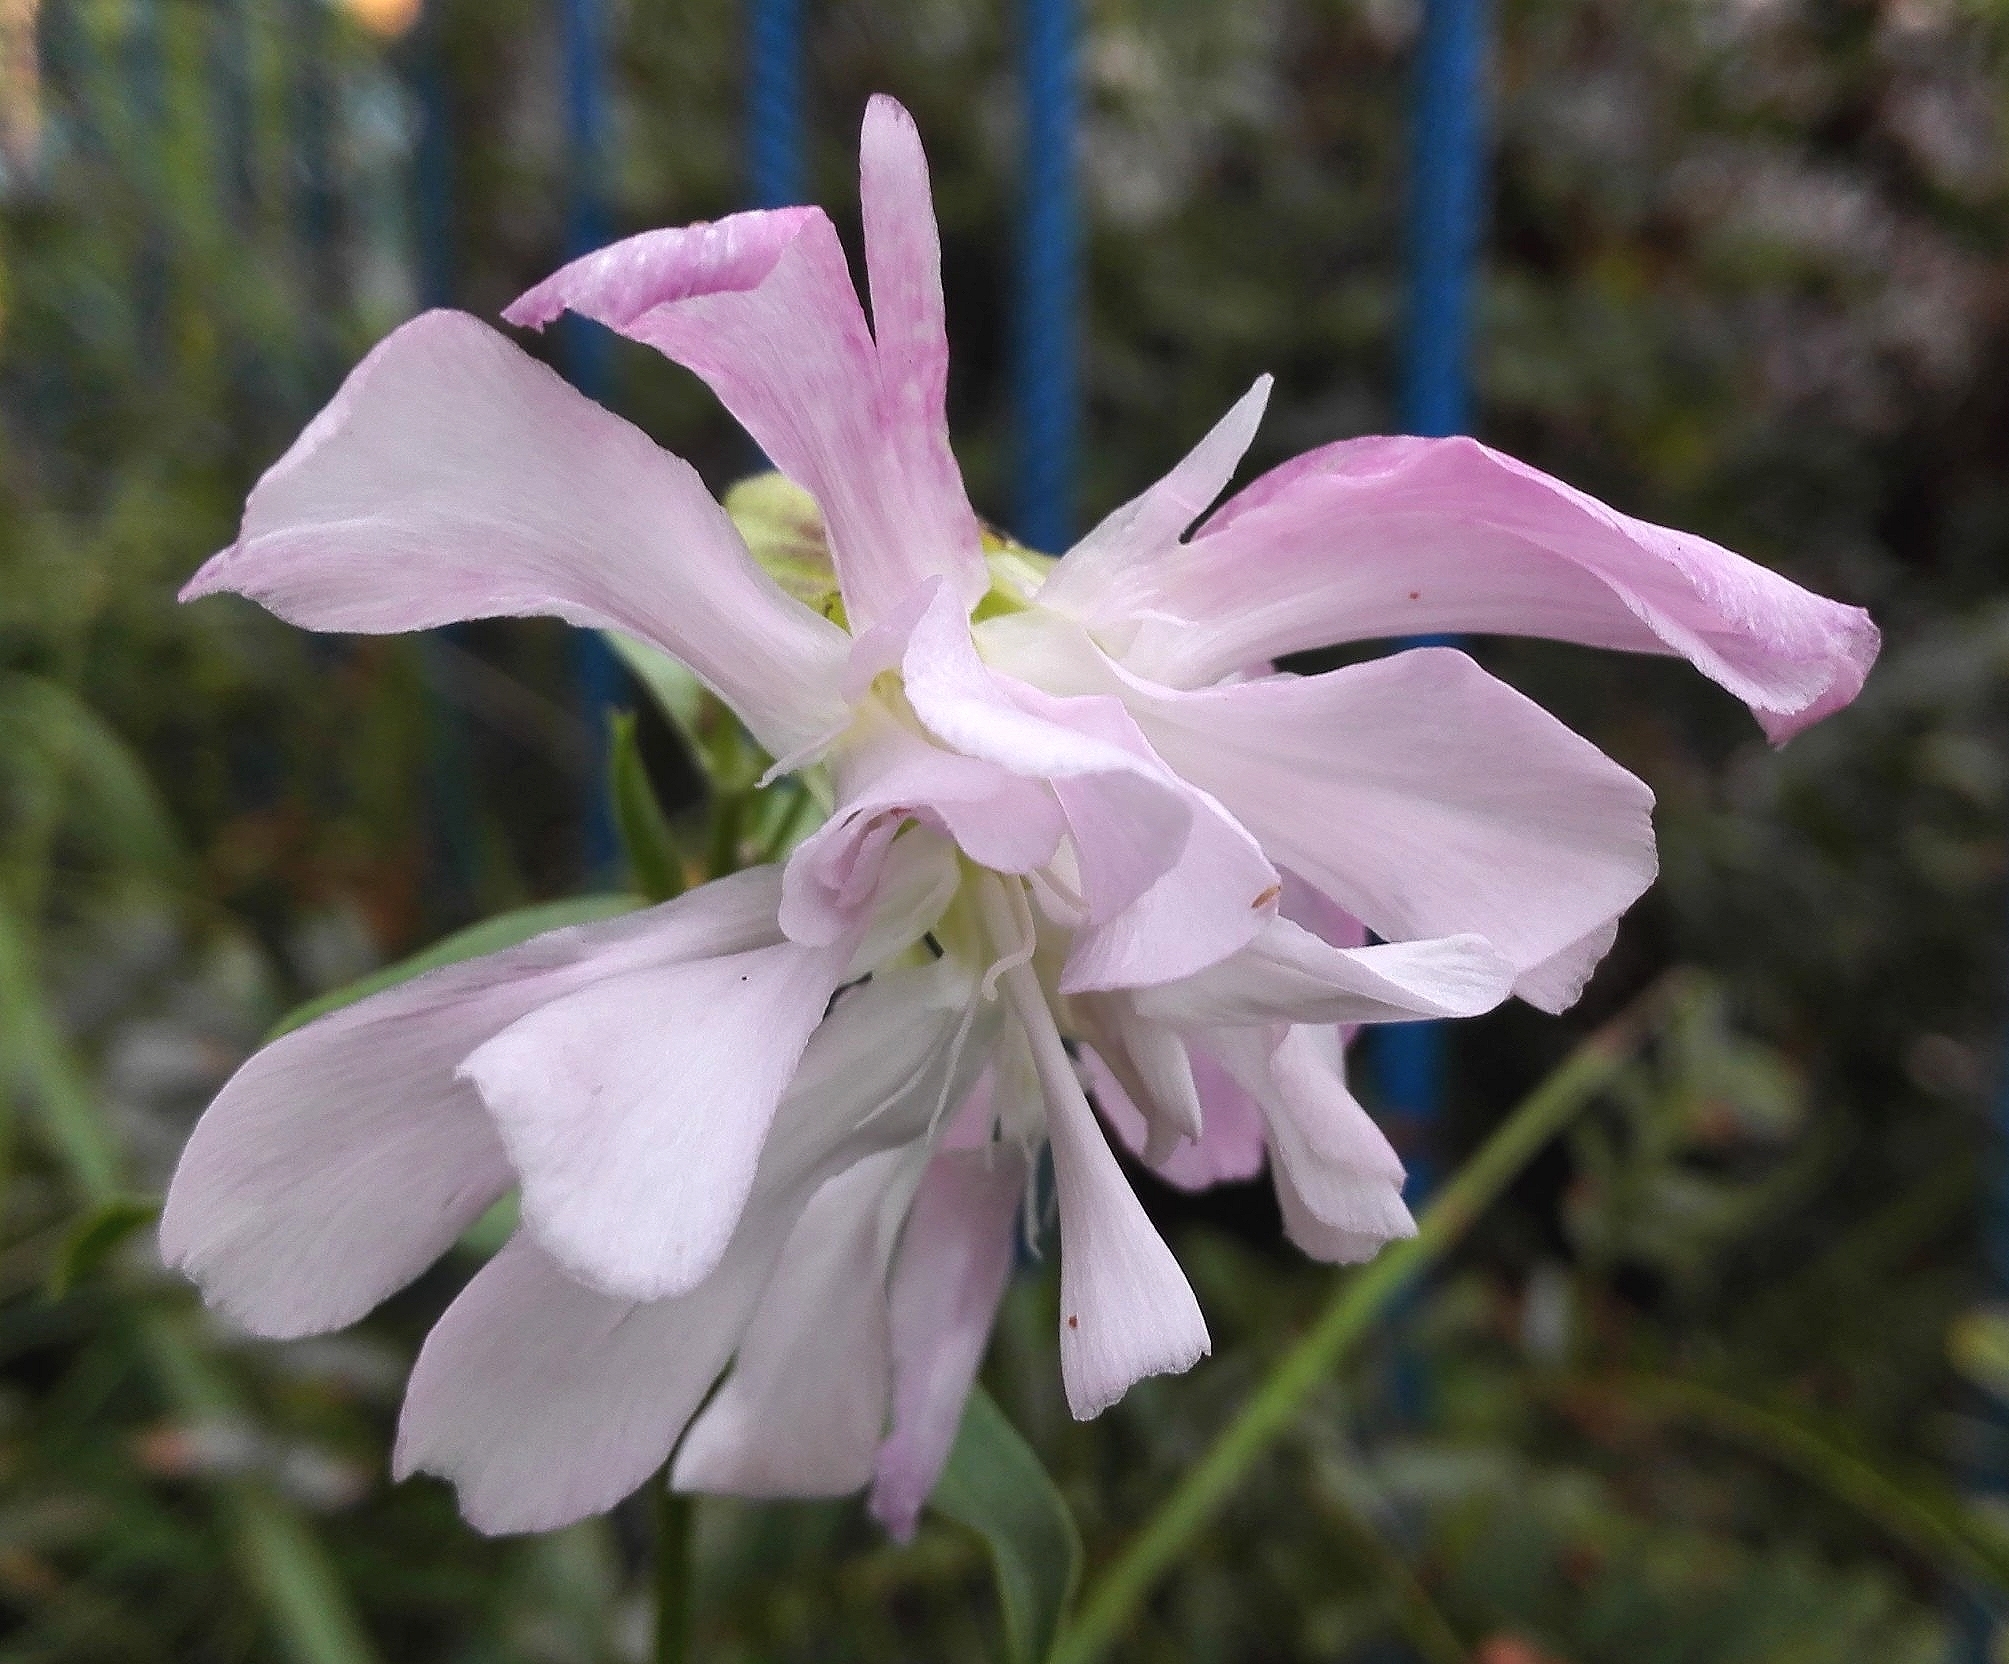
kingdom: Plantae
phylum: Tracheophyta
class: Magnoliopsida
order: Caryophyllales
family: Caryophyllaceae
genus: Saponaria
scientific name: Saponaria officinalis
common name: Soapwort
